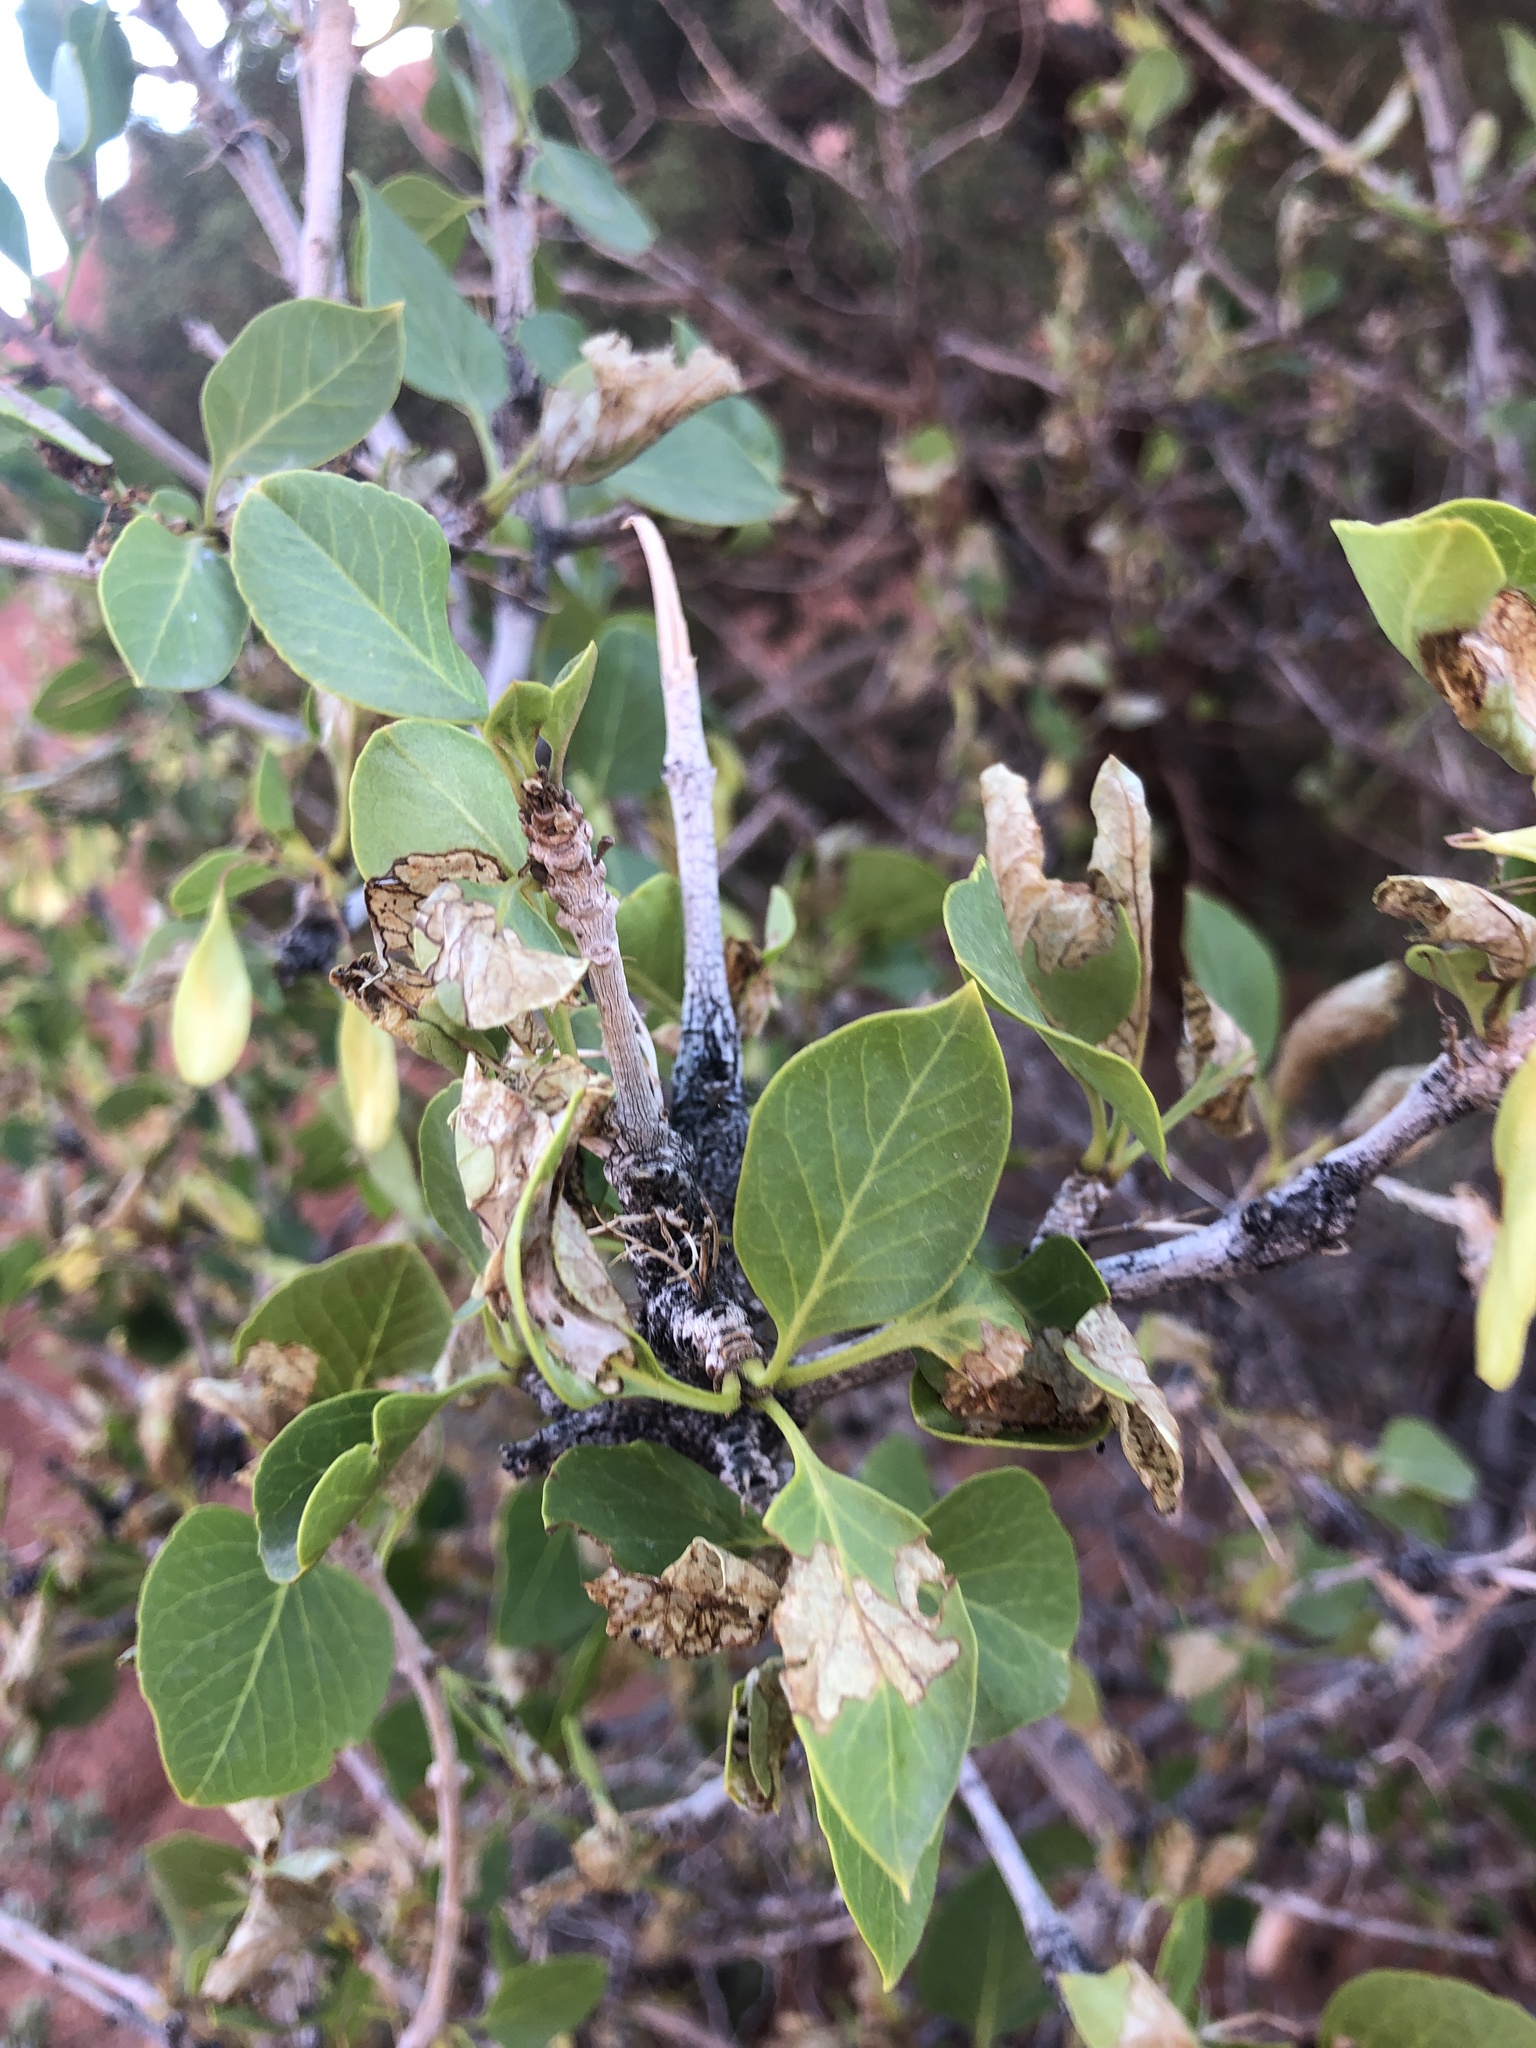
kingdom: Plantae
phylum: Tracheophyta
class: Magnoliopsida
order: Lamiales
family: Oleaceae
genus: Fraxinus
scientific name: Fraxinus anomala
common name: Utah ash
